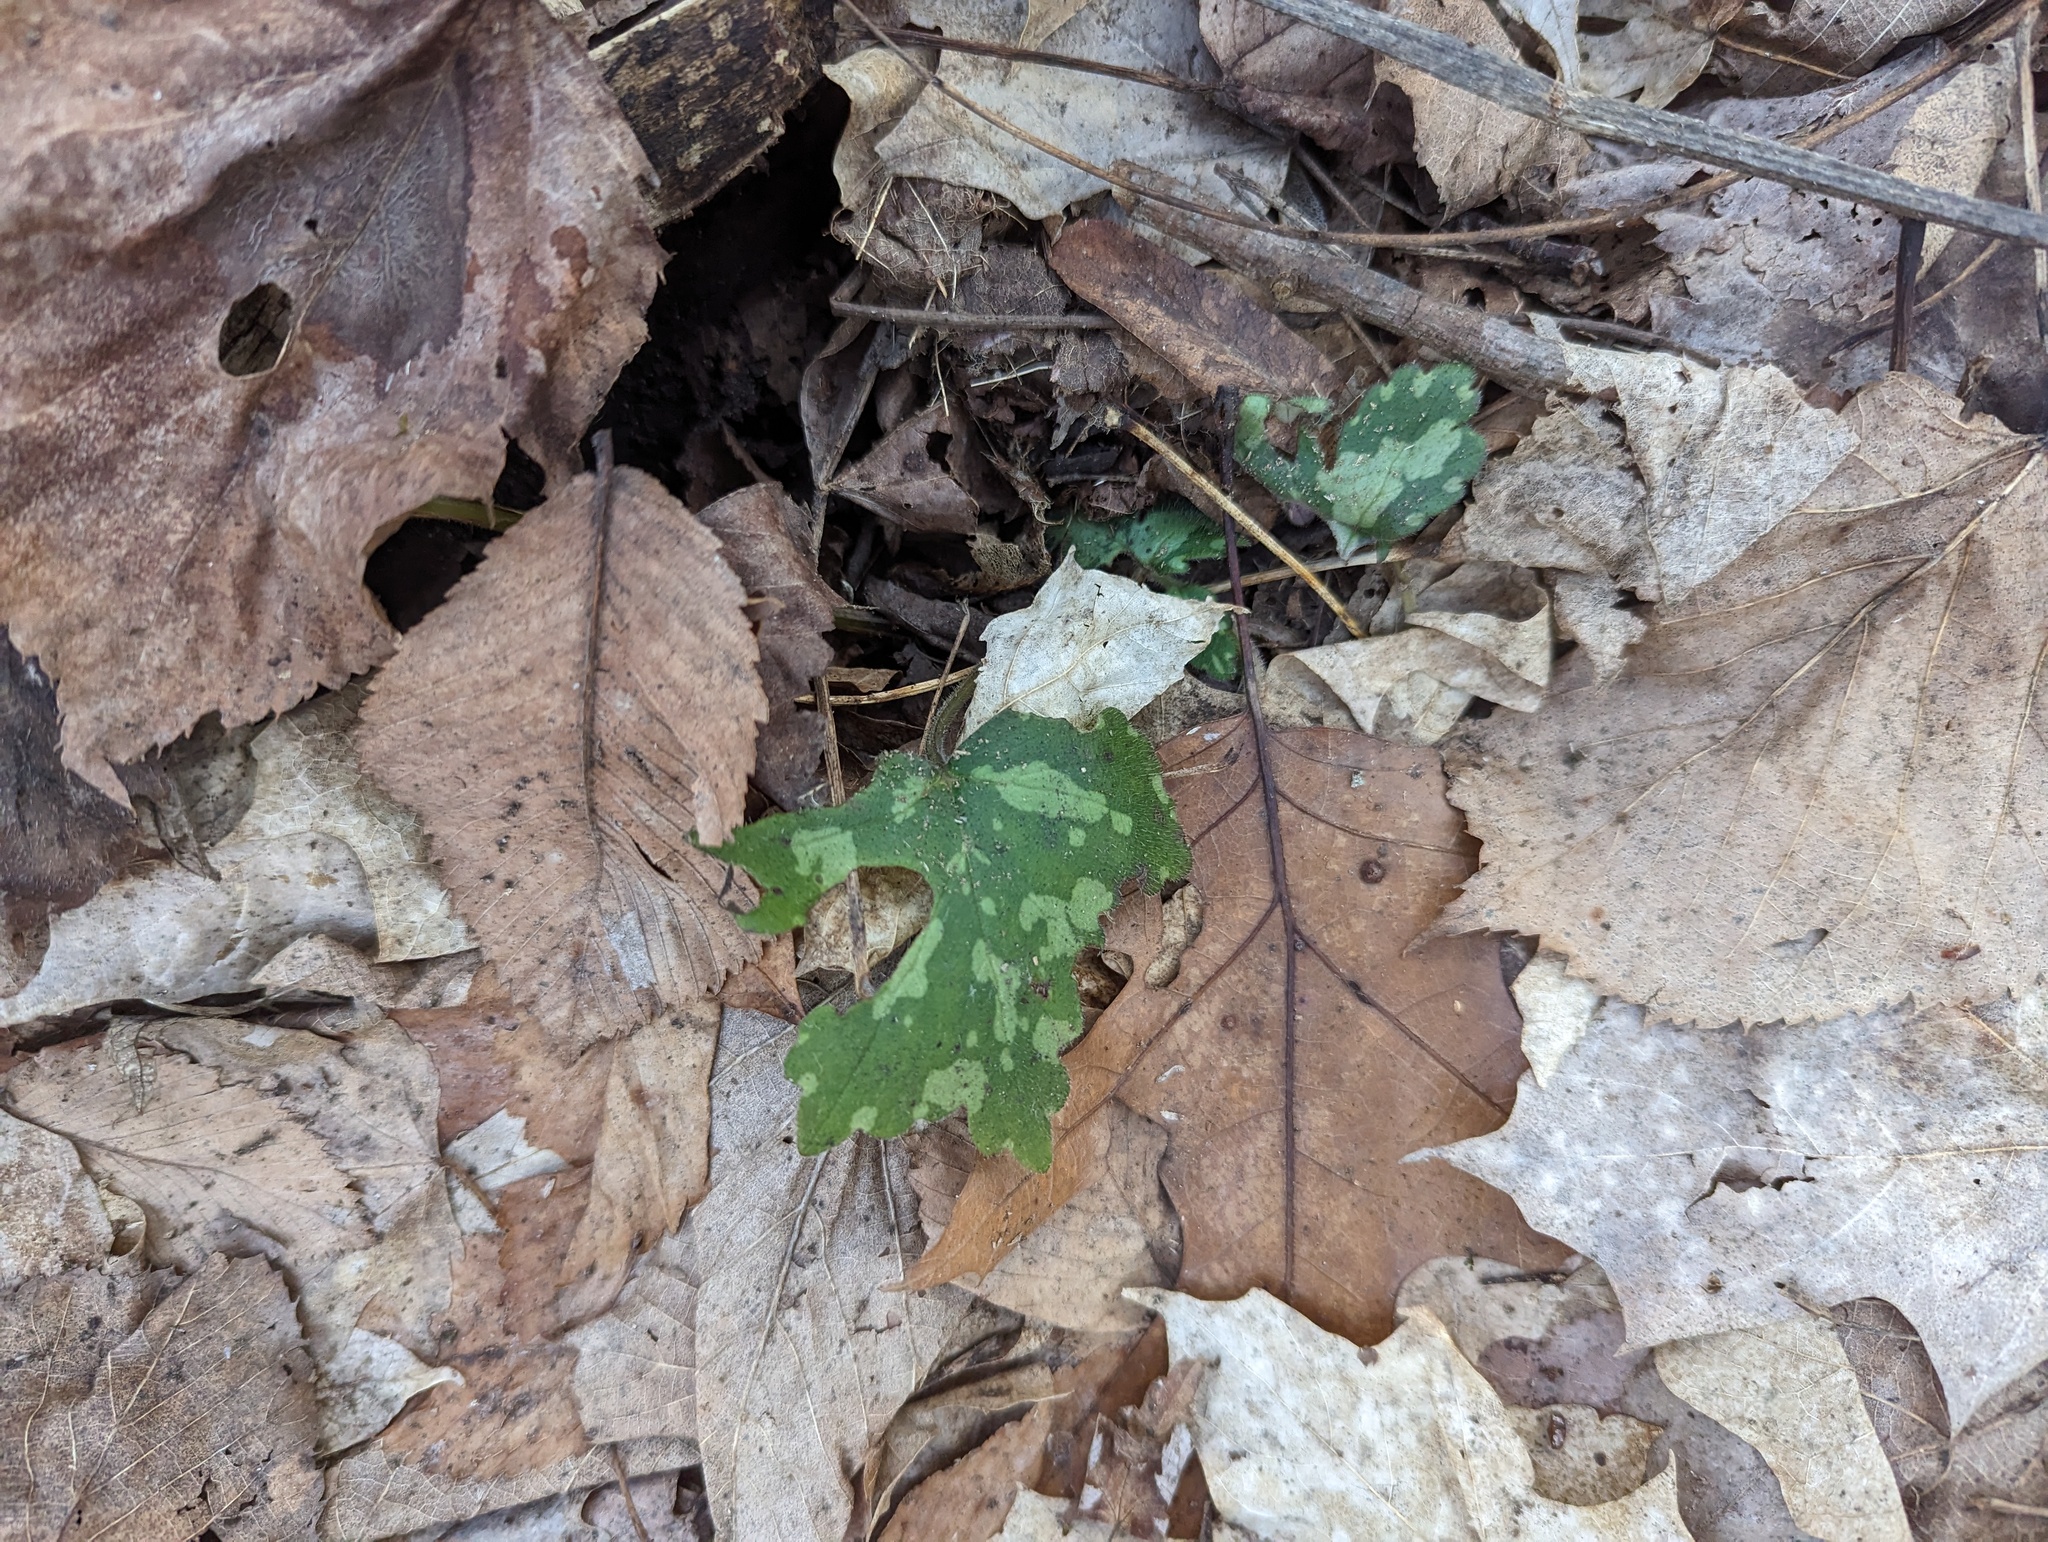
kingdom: Plantae
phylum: Tracheophyta
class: Magnoliopsida
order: Boraginales
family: Hydrophyllaceae
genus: Hydrophyllum
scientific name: Hydrophyllum appendiculatum
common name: Appendaged waterleaf
